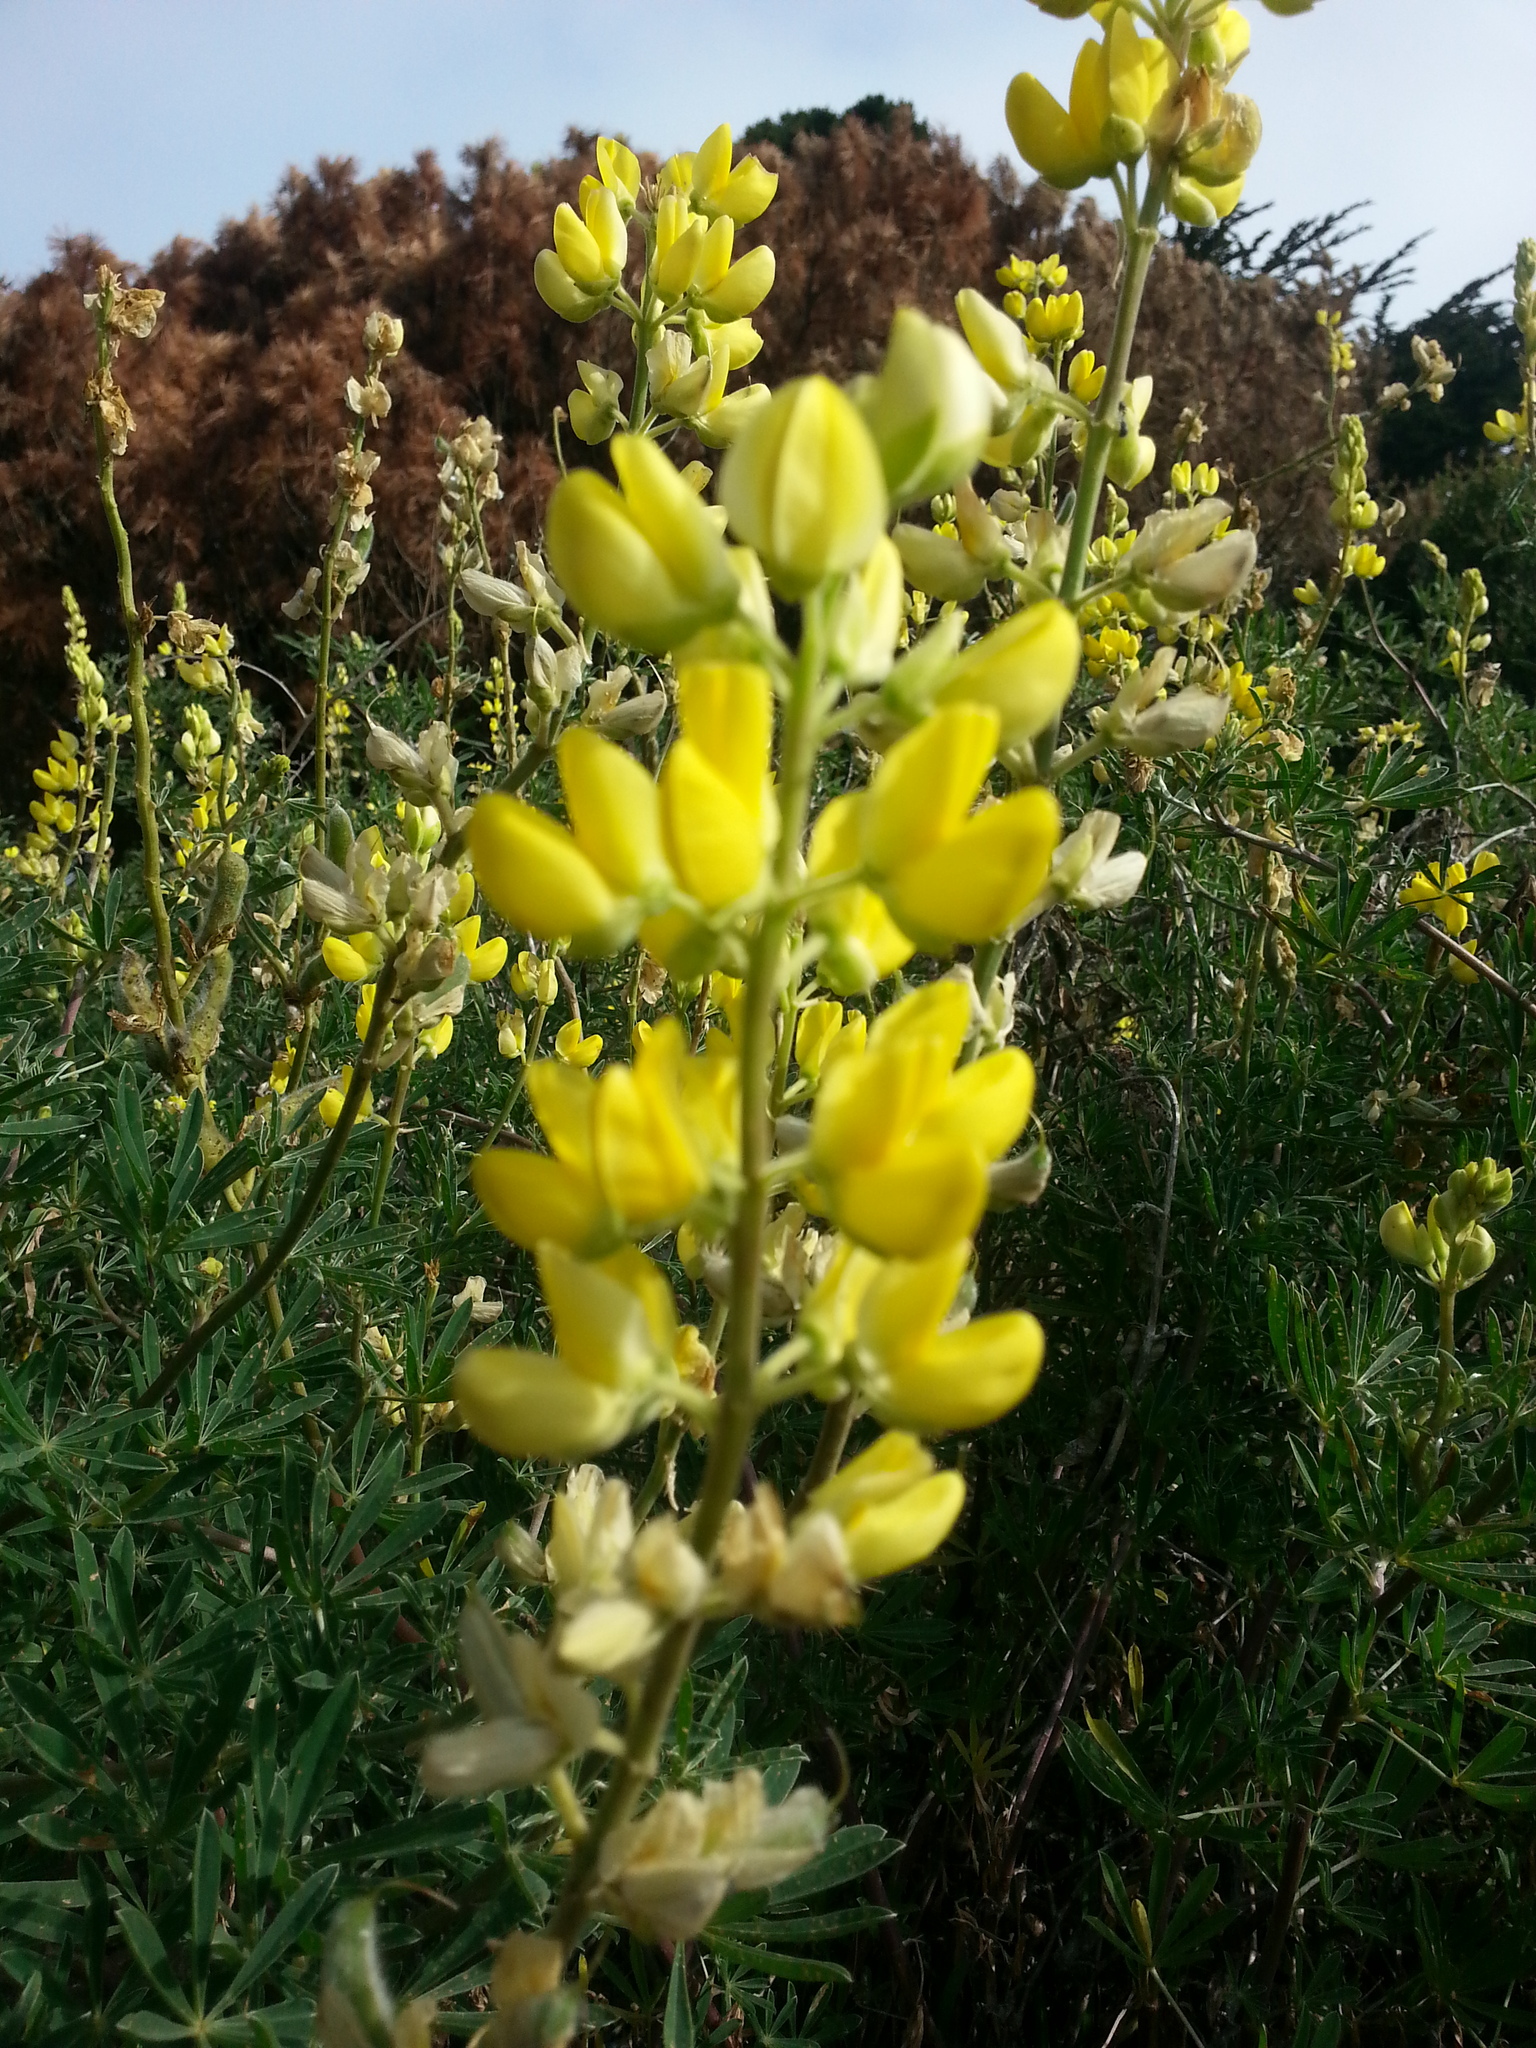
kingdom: Plantae
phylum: Tracheophyta
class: Magnoliopsida
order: Fabales
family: Fabaceae
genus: Lupinus
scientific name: Lupinus arboreus
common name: Yellow bush lupine
